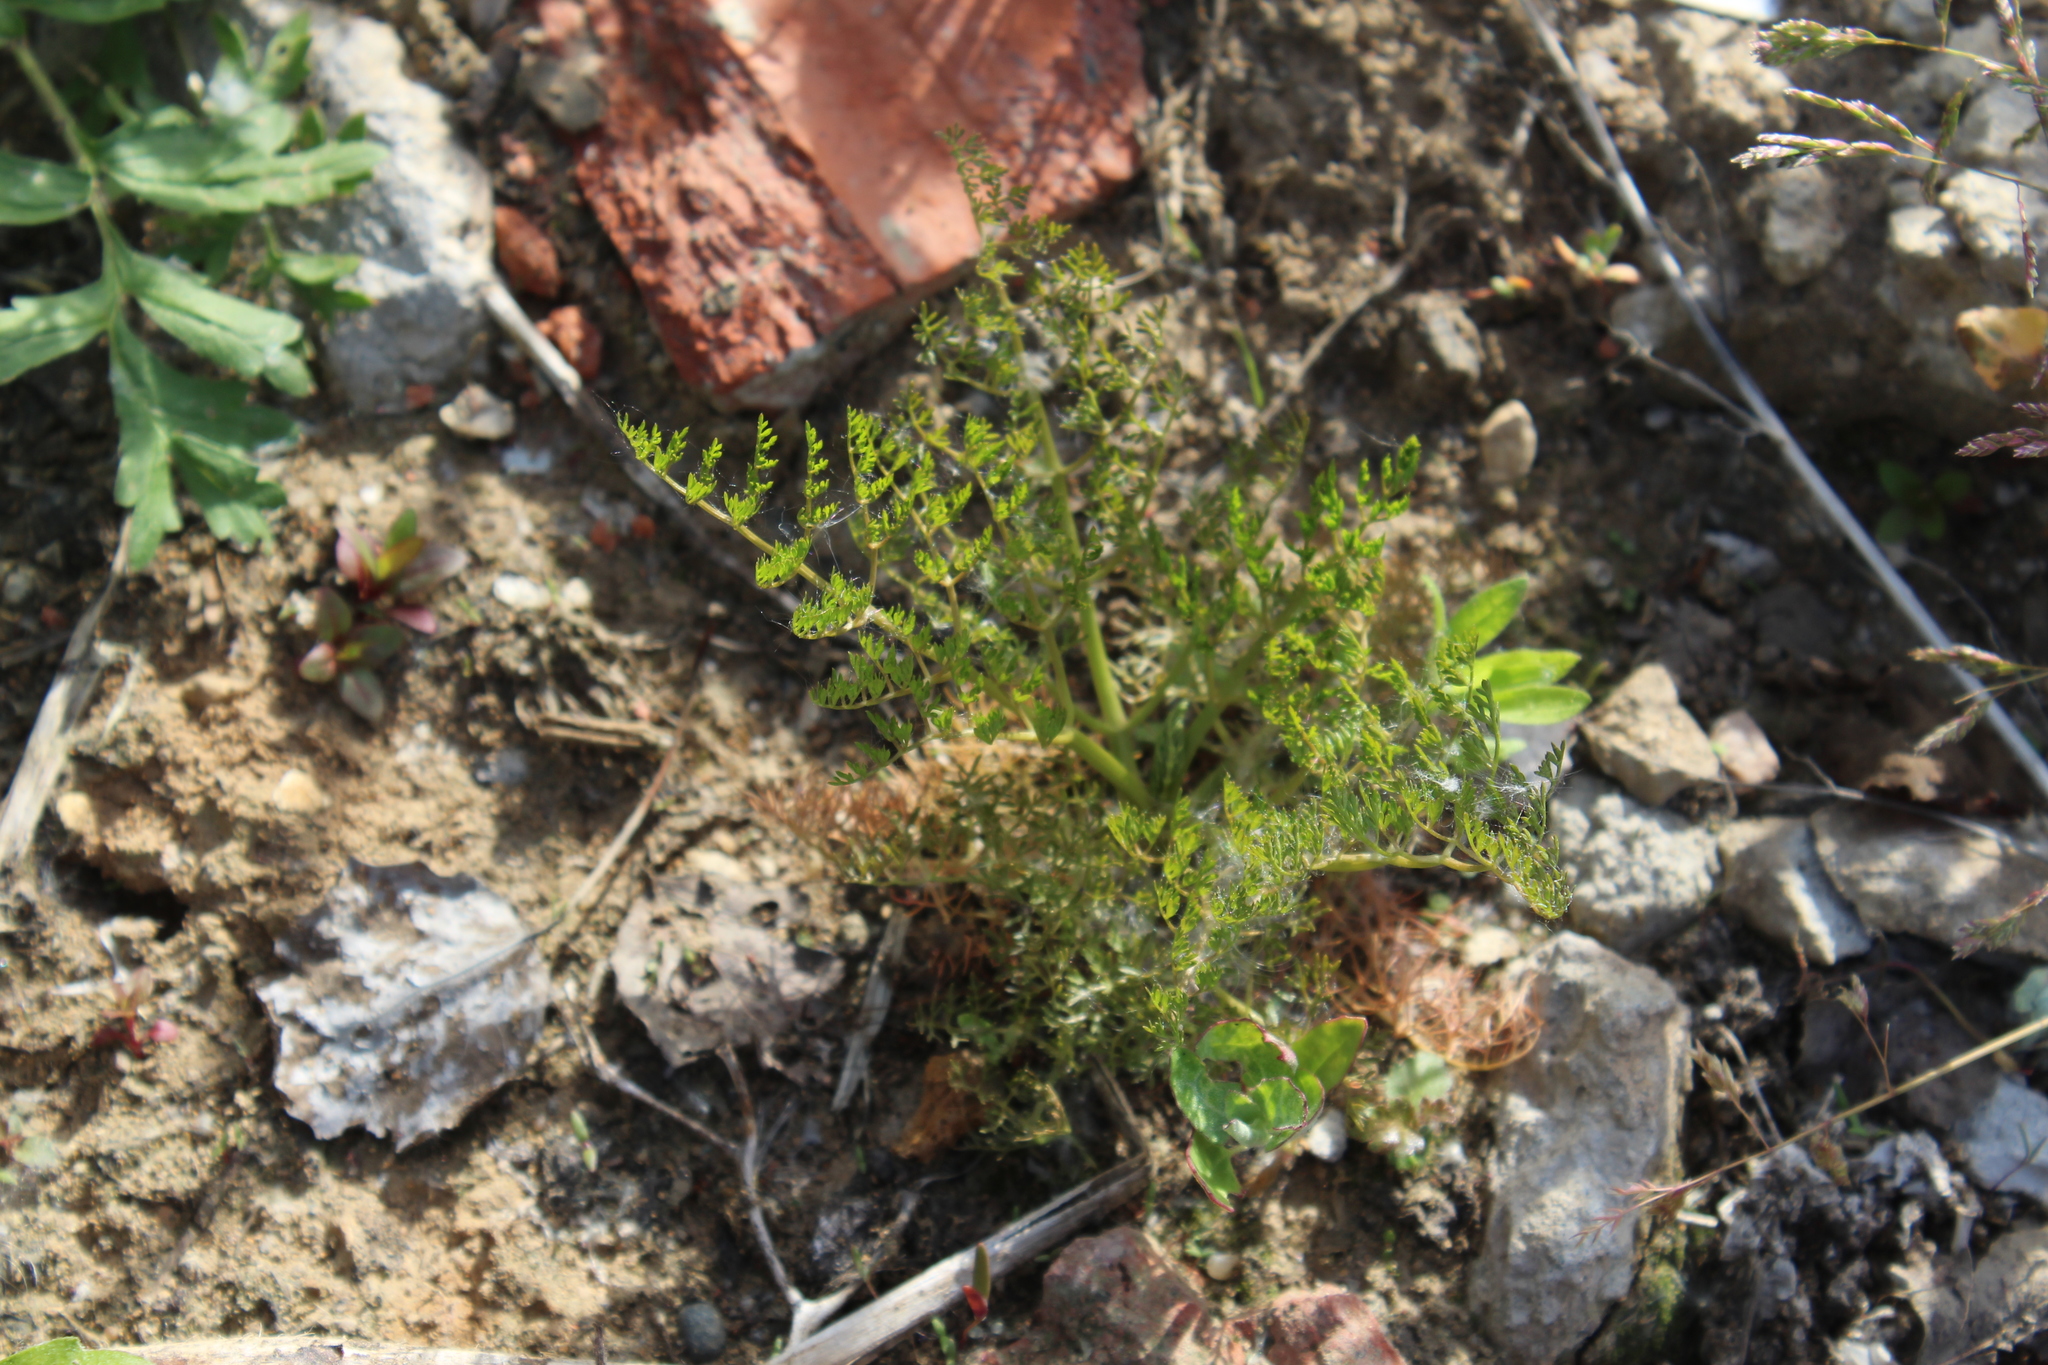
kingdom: Plantae
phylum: Tracheophyta
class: Magnoliopsida
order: Apiales
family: Apiaceae
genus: Oenanthe
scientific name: Oenanthe aquatica
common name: Fine-leaved water-dropwort
